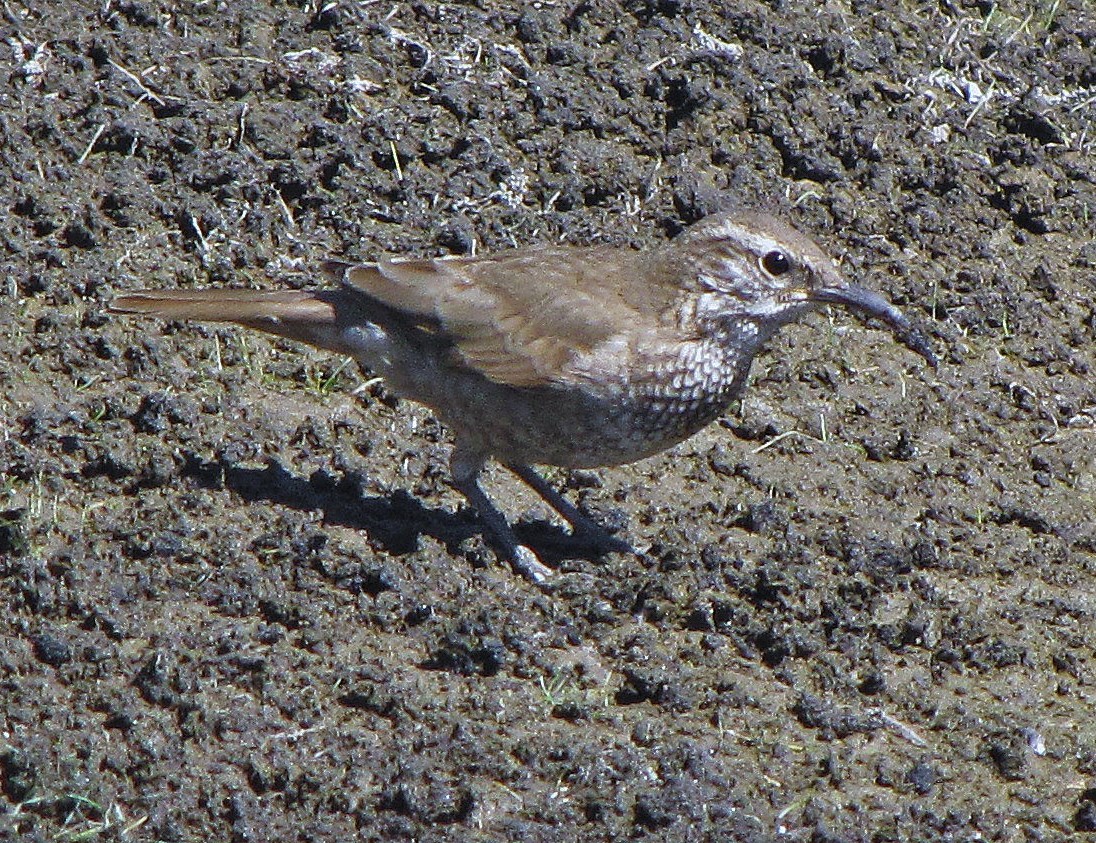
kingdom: Animalia
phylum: Chordata
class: Aves
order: Passeriformes
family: Furnariidae
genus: Upucerthia
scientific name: Upucerthia dumetaria
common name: Scale-throated earthcreeper
